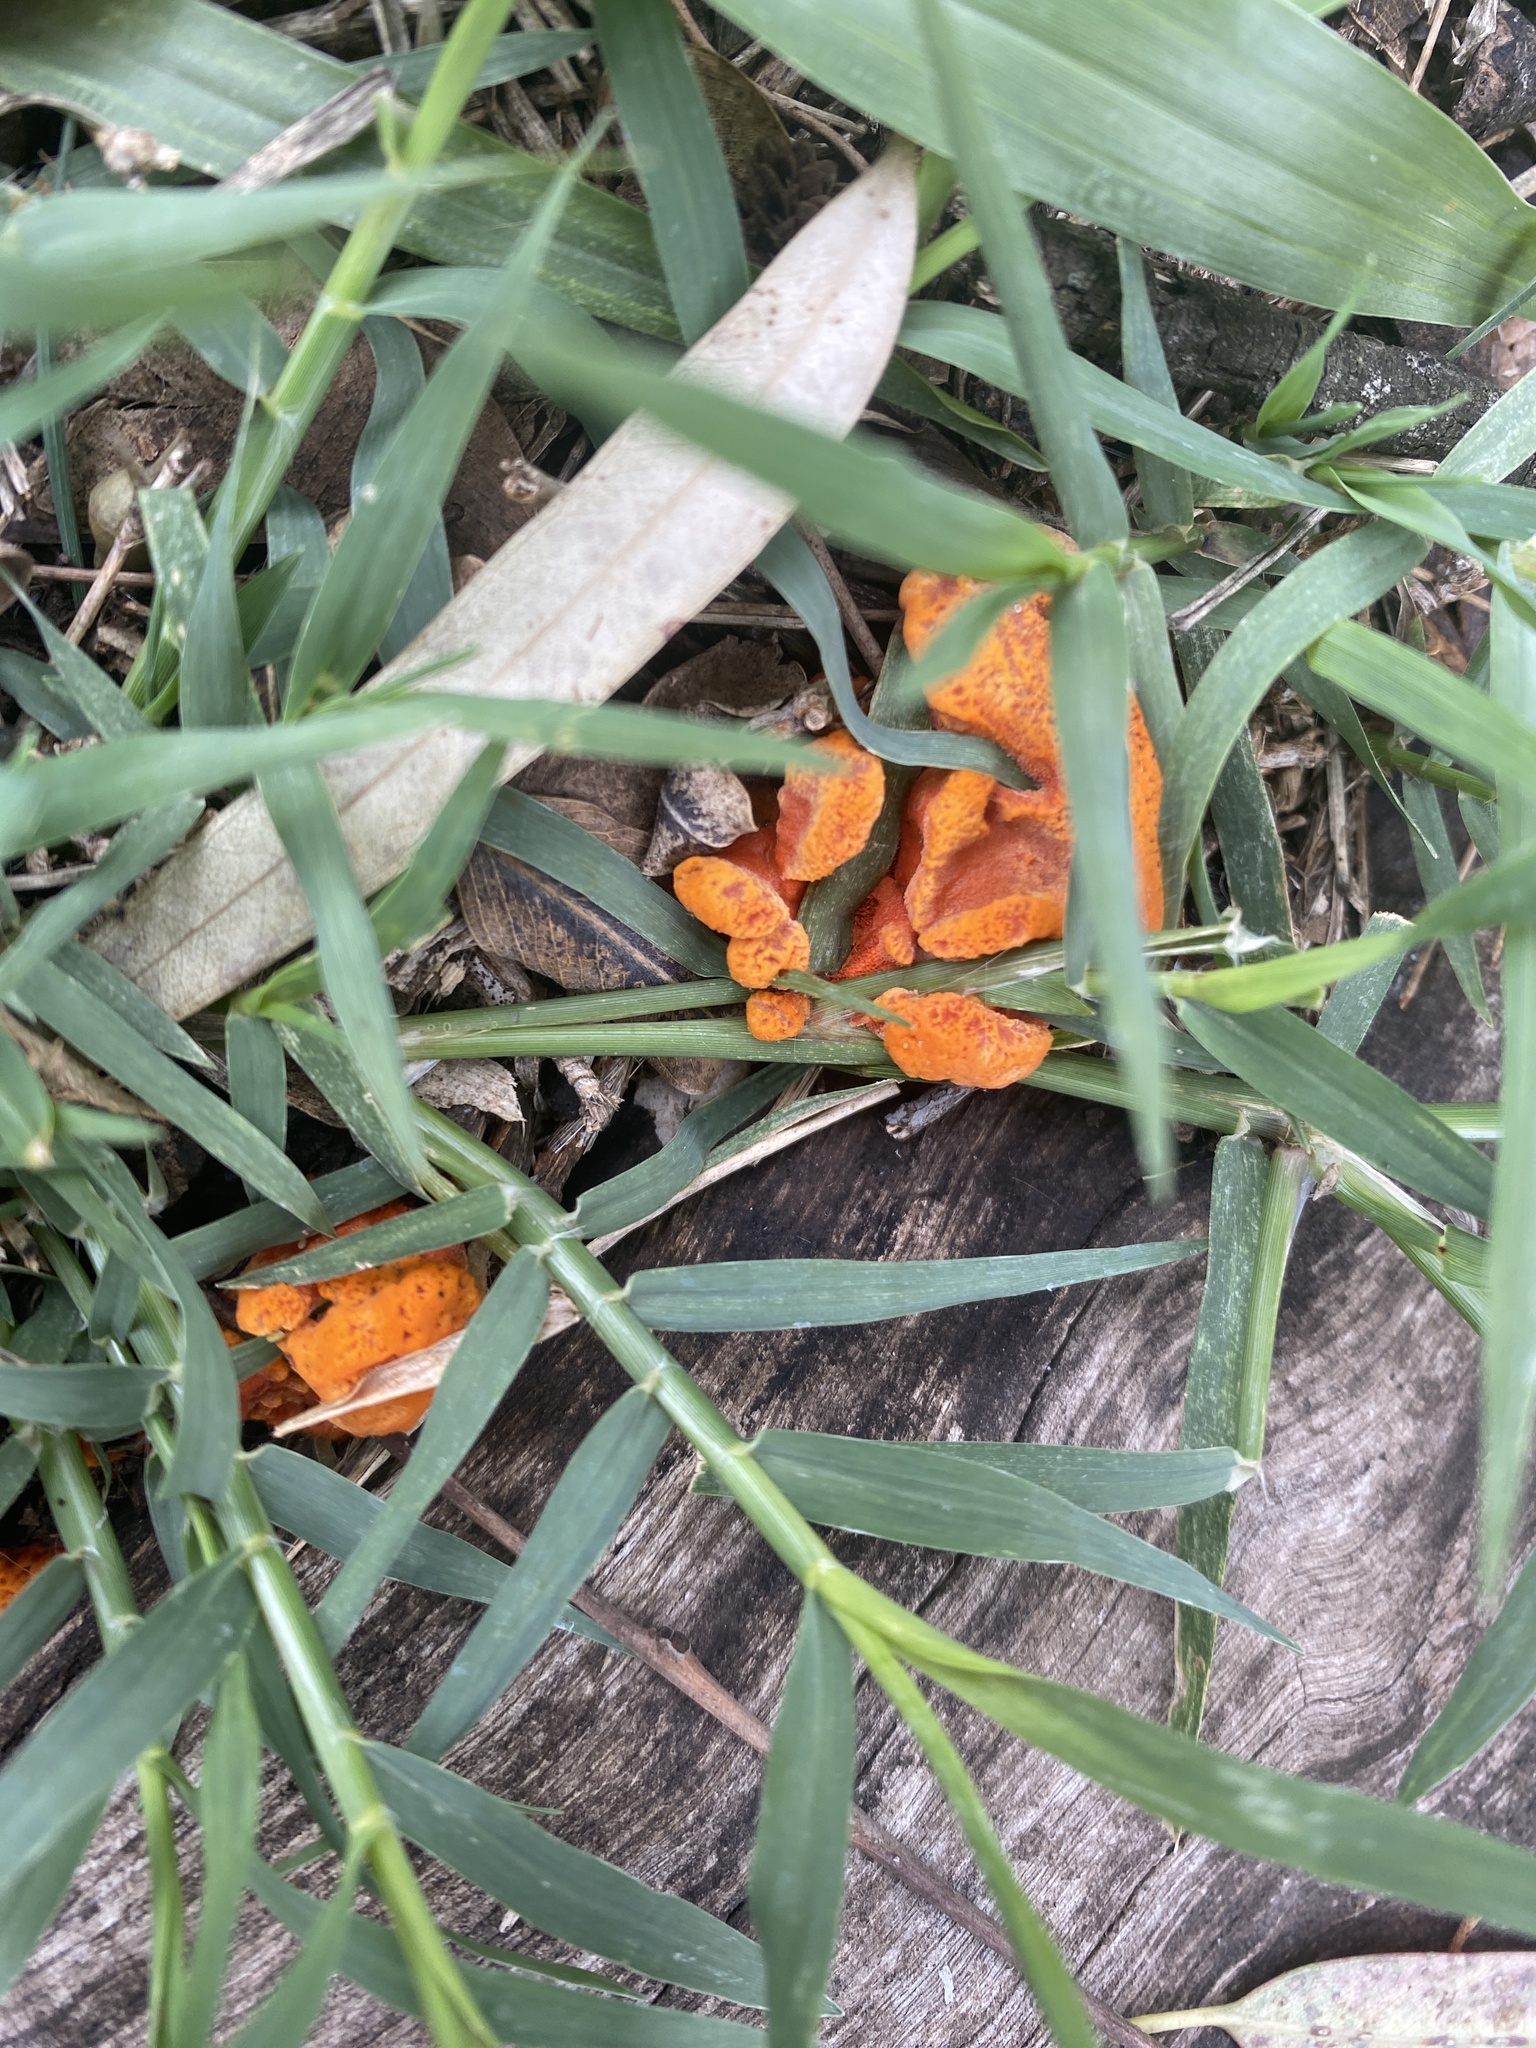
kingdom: Fungi
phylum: Basidiomycota
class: Agaricomycetes
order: Polyporales
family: Polyporaceae
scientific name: Polyporaceae
